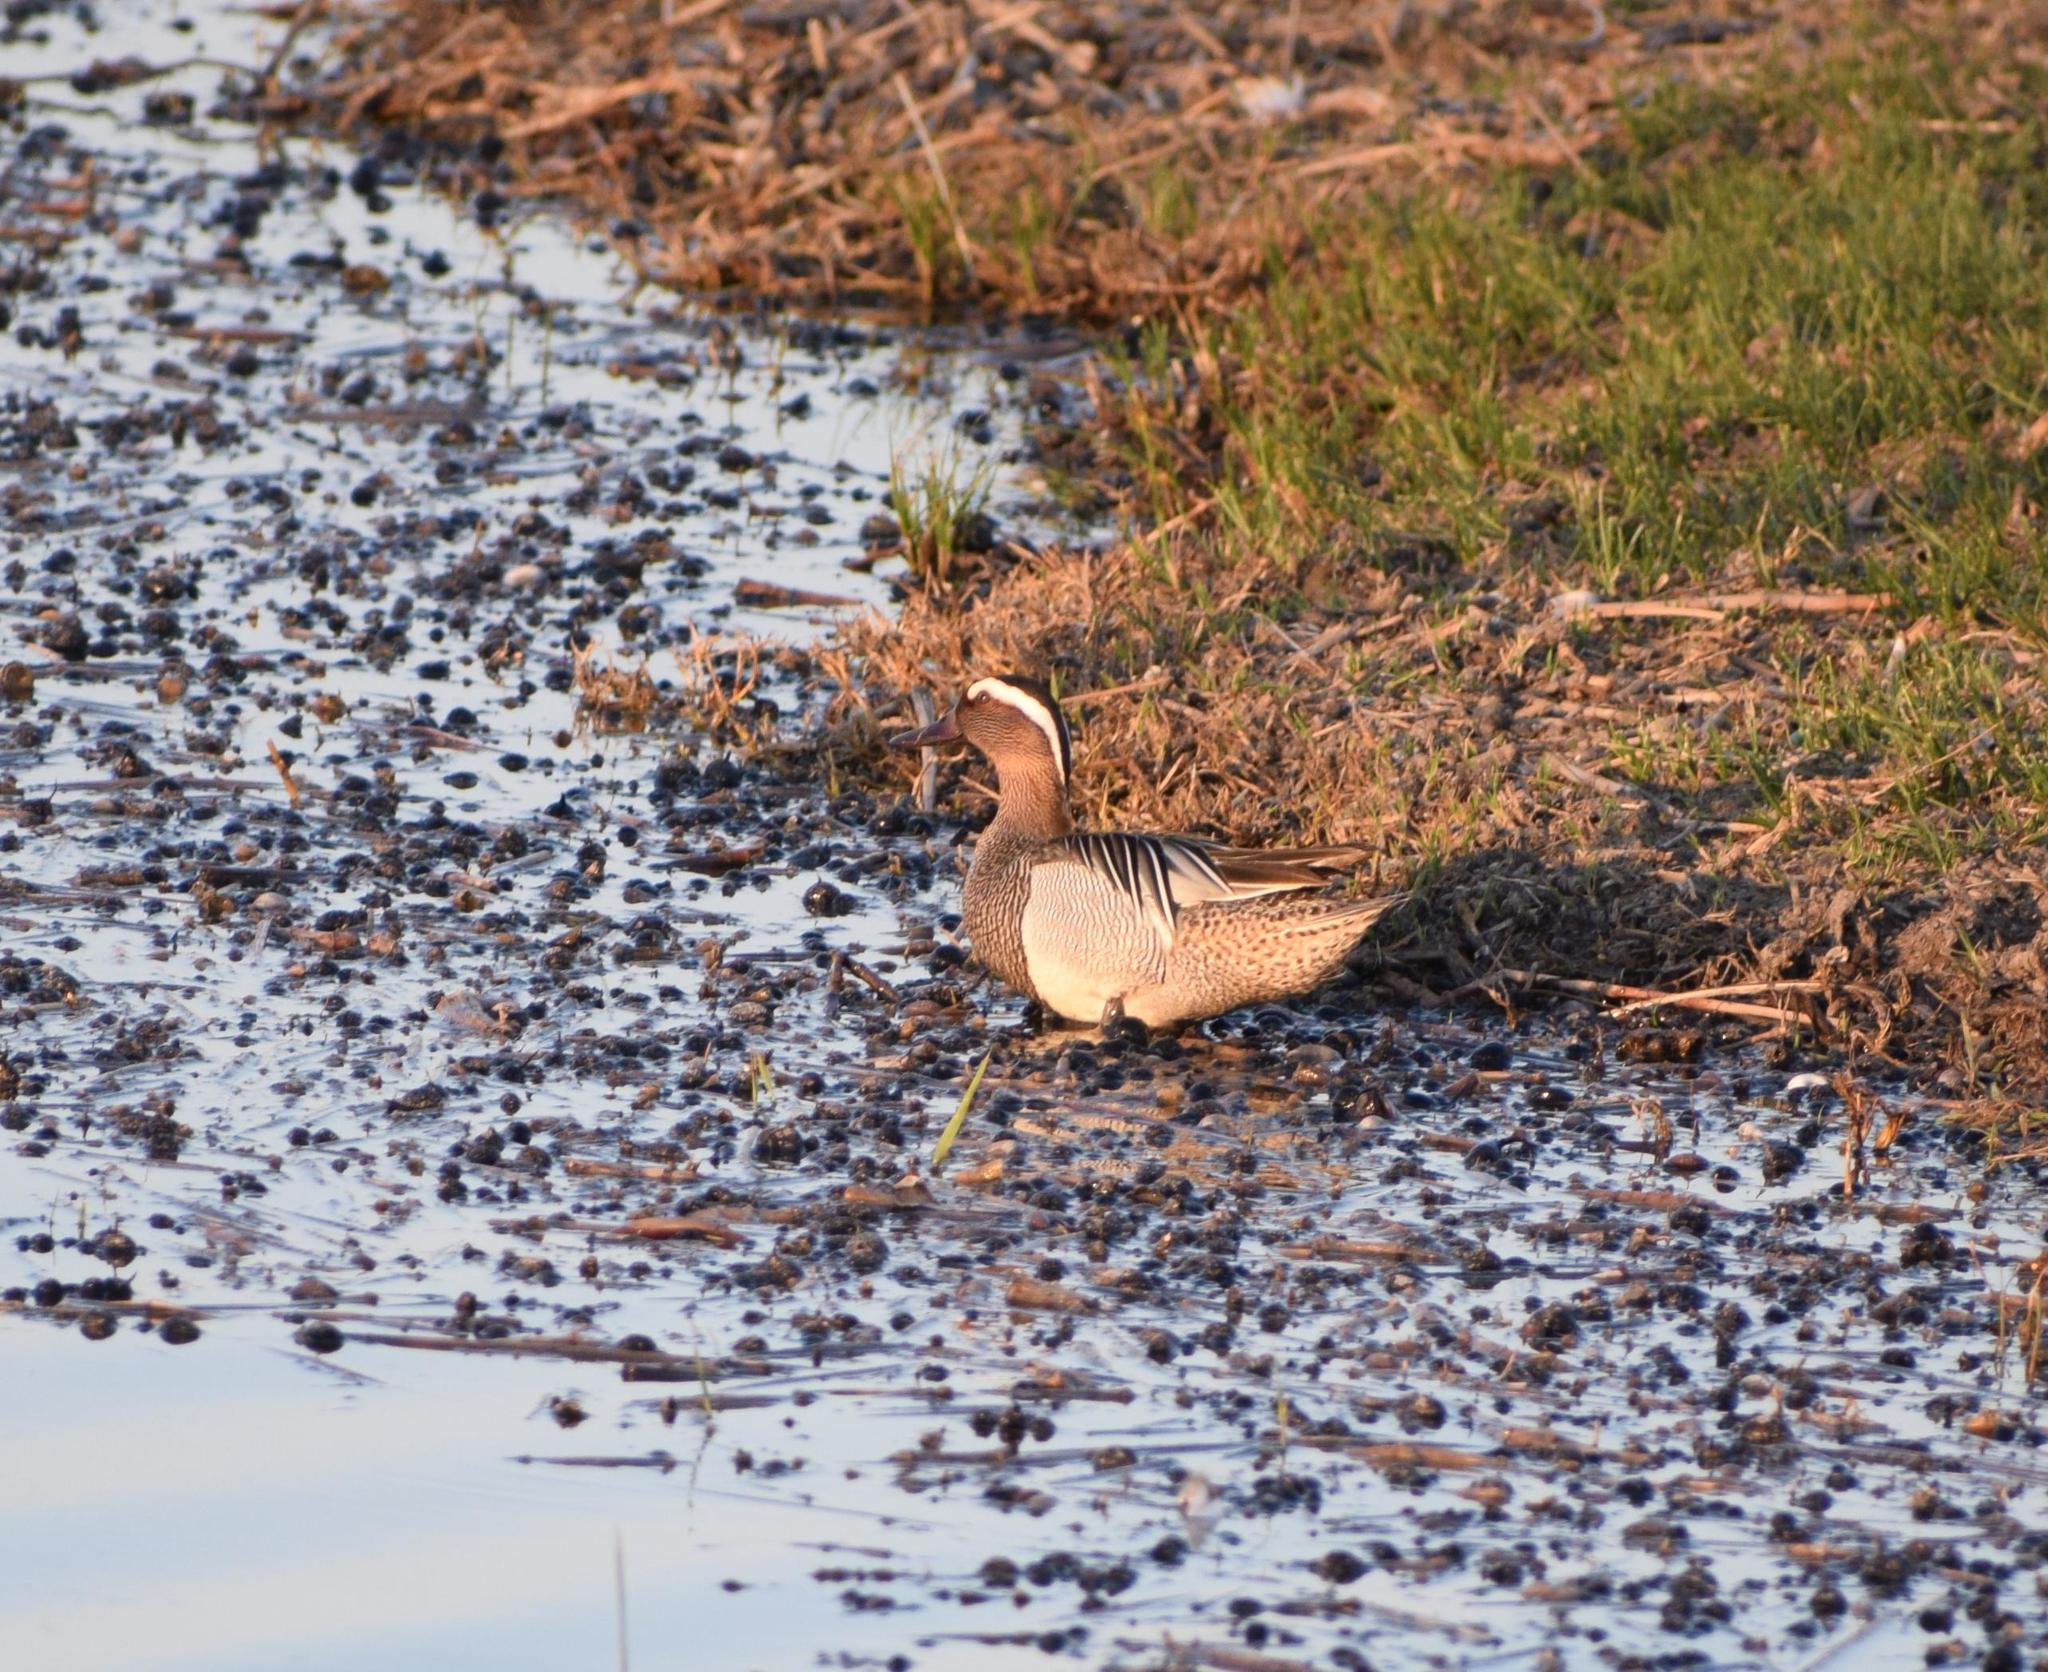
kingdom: Animalia
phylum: Chordata
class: Aves
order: Anseriformes
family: Anatidae
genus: Spatula
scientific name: Spatula querquedula
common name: Garganey
